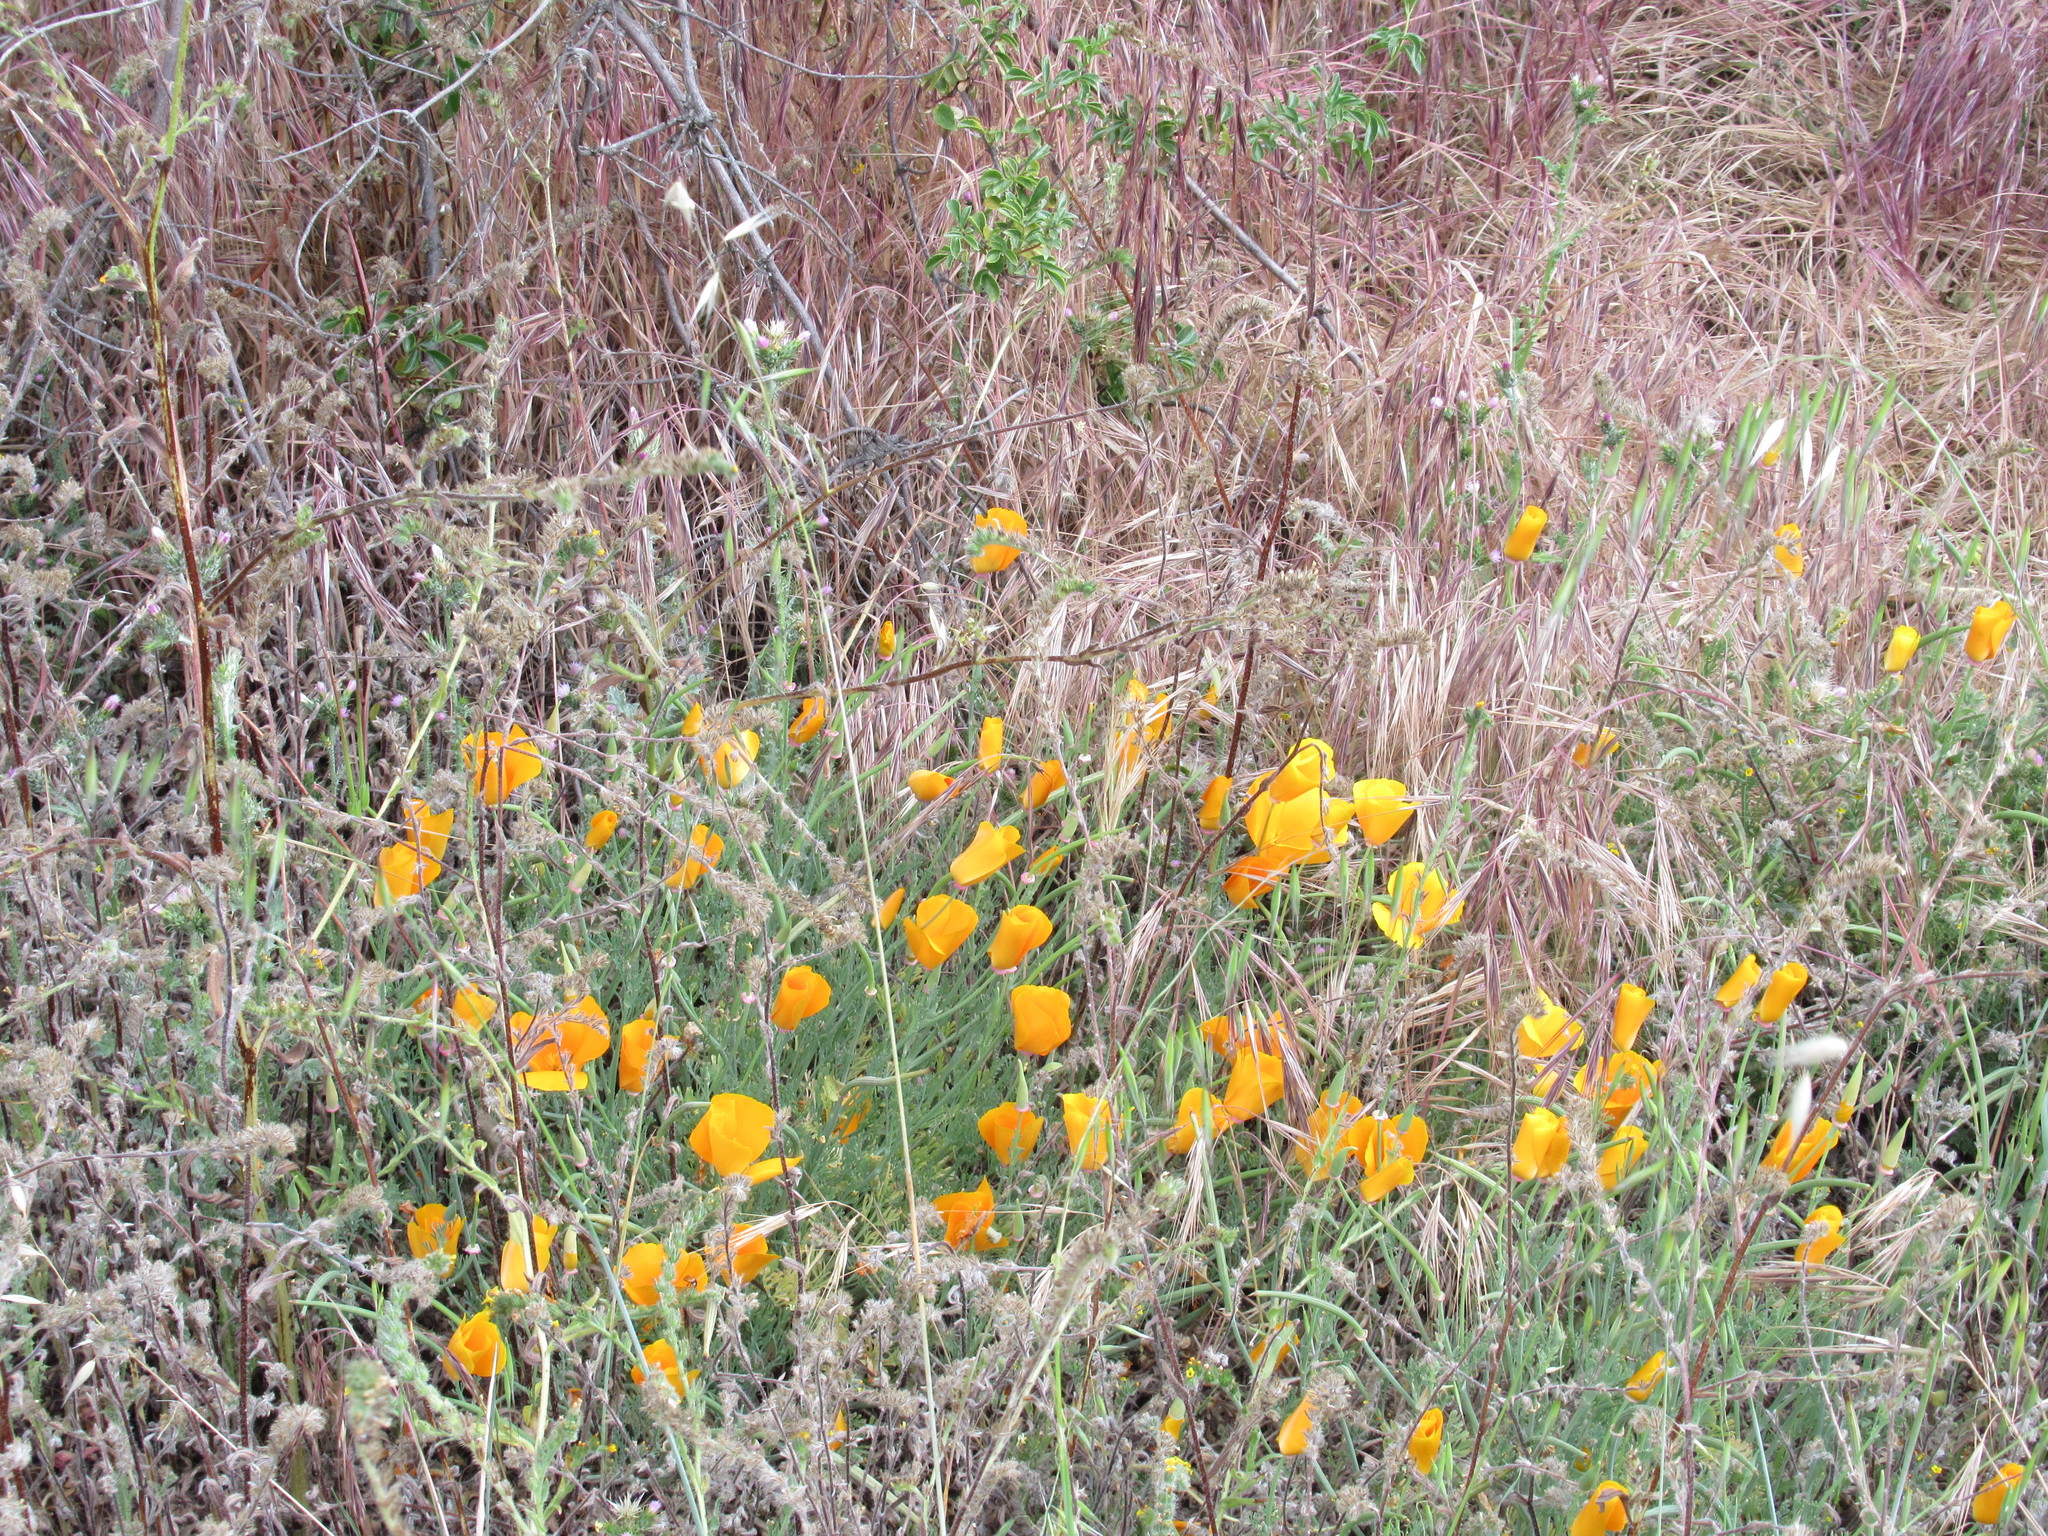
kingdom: Plantae
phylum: Tracheophyta
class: Magnoliopsida
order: Ranunculales
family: Papaveraceae
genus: Eschscholzia
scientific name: Eschscholzia californica
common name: California poppy
